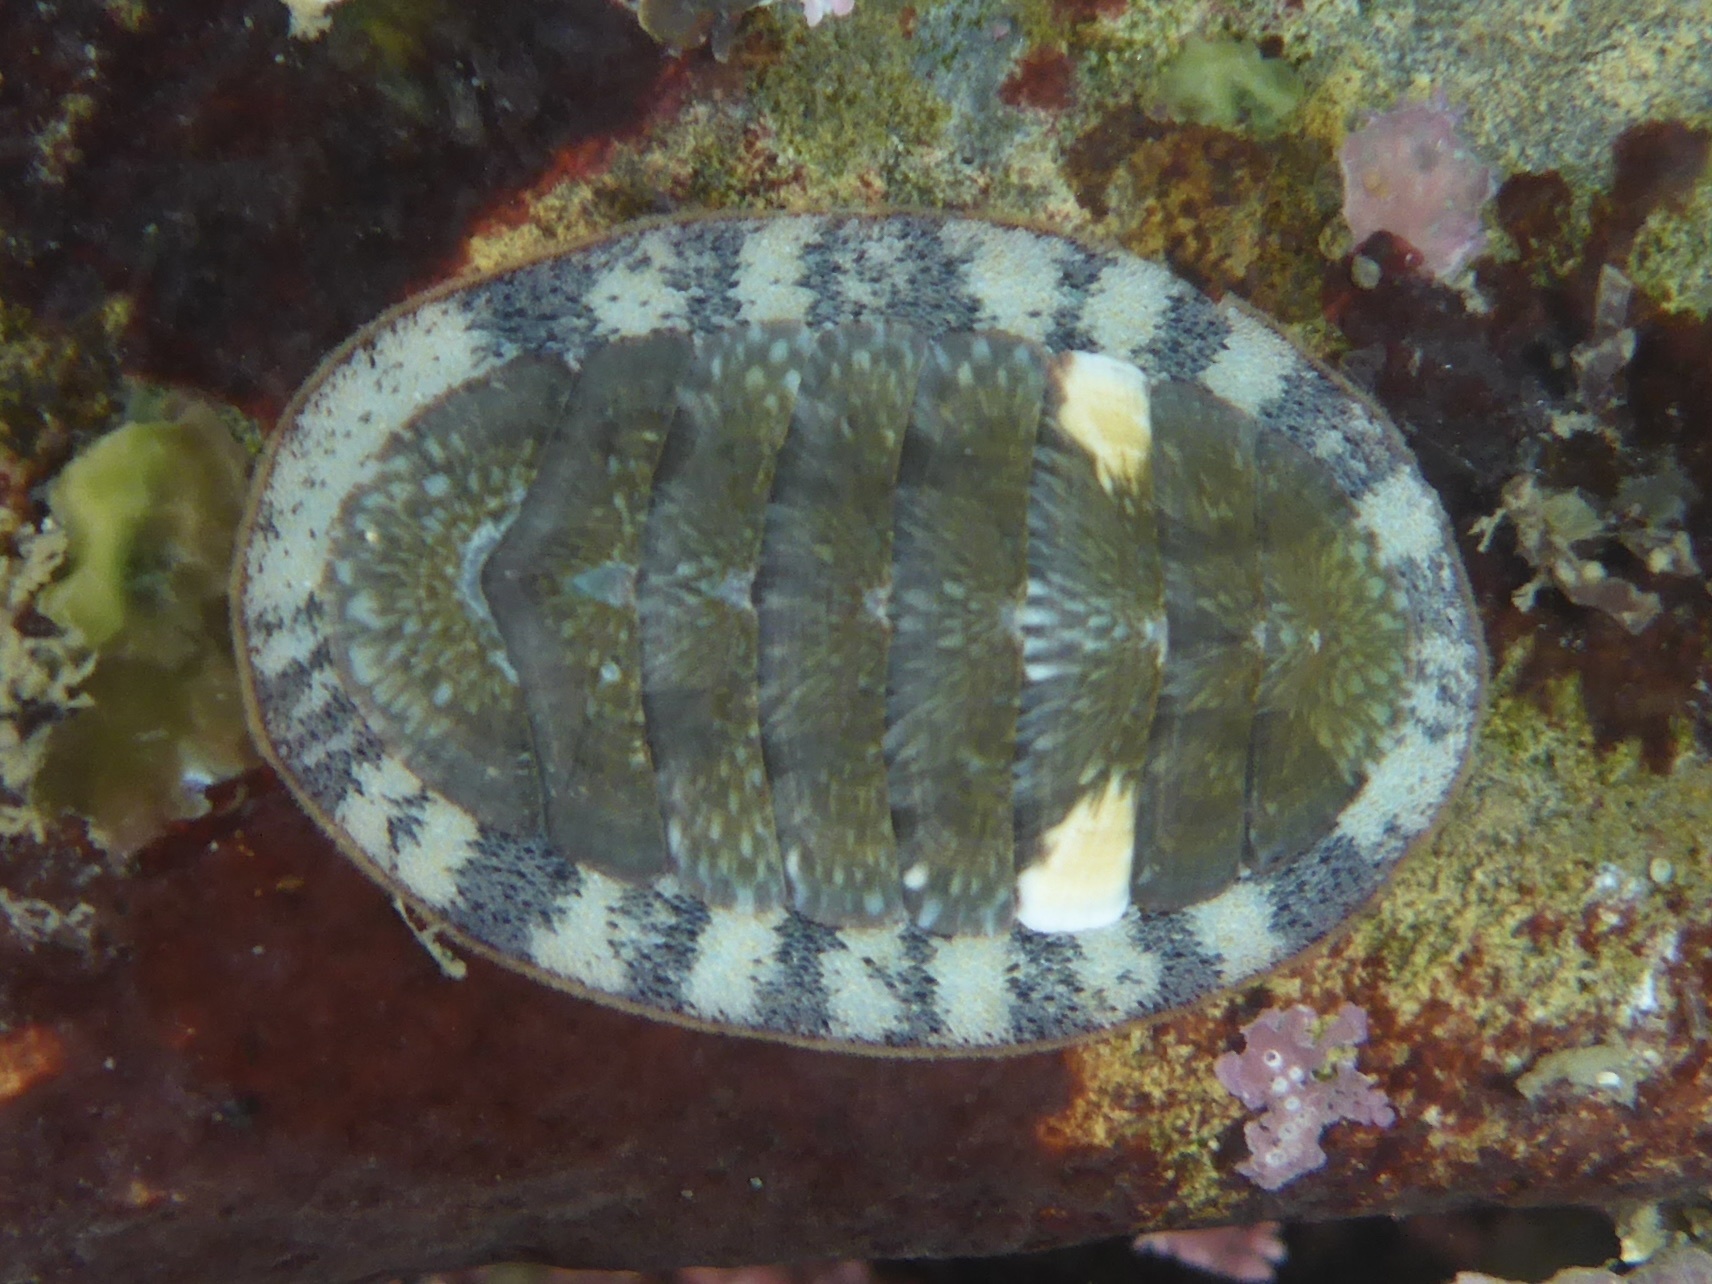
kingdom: Animalia
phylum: Mollusca
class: Polyplacophora
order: Chitonida
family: Ischnochitonidae
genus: Lepidozona
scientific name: Lepidozona radians
